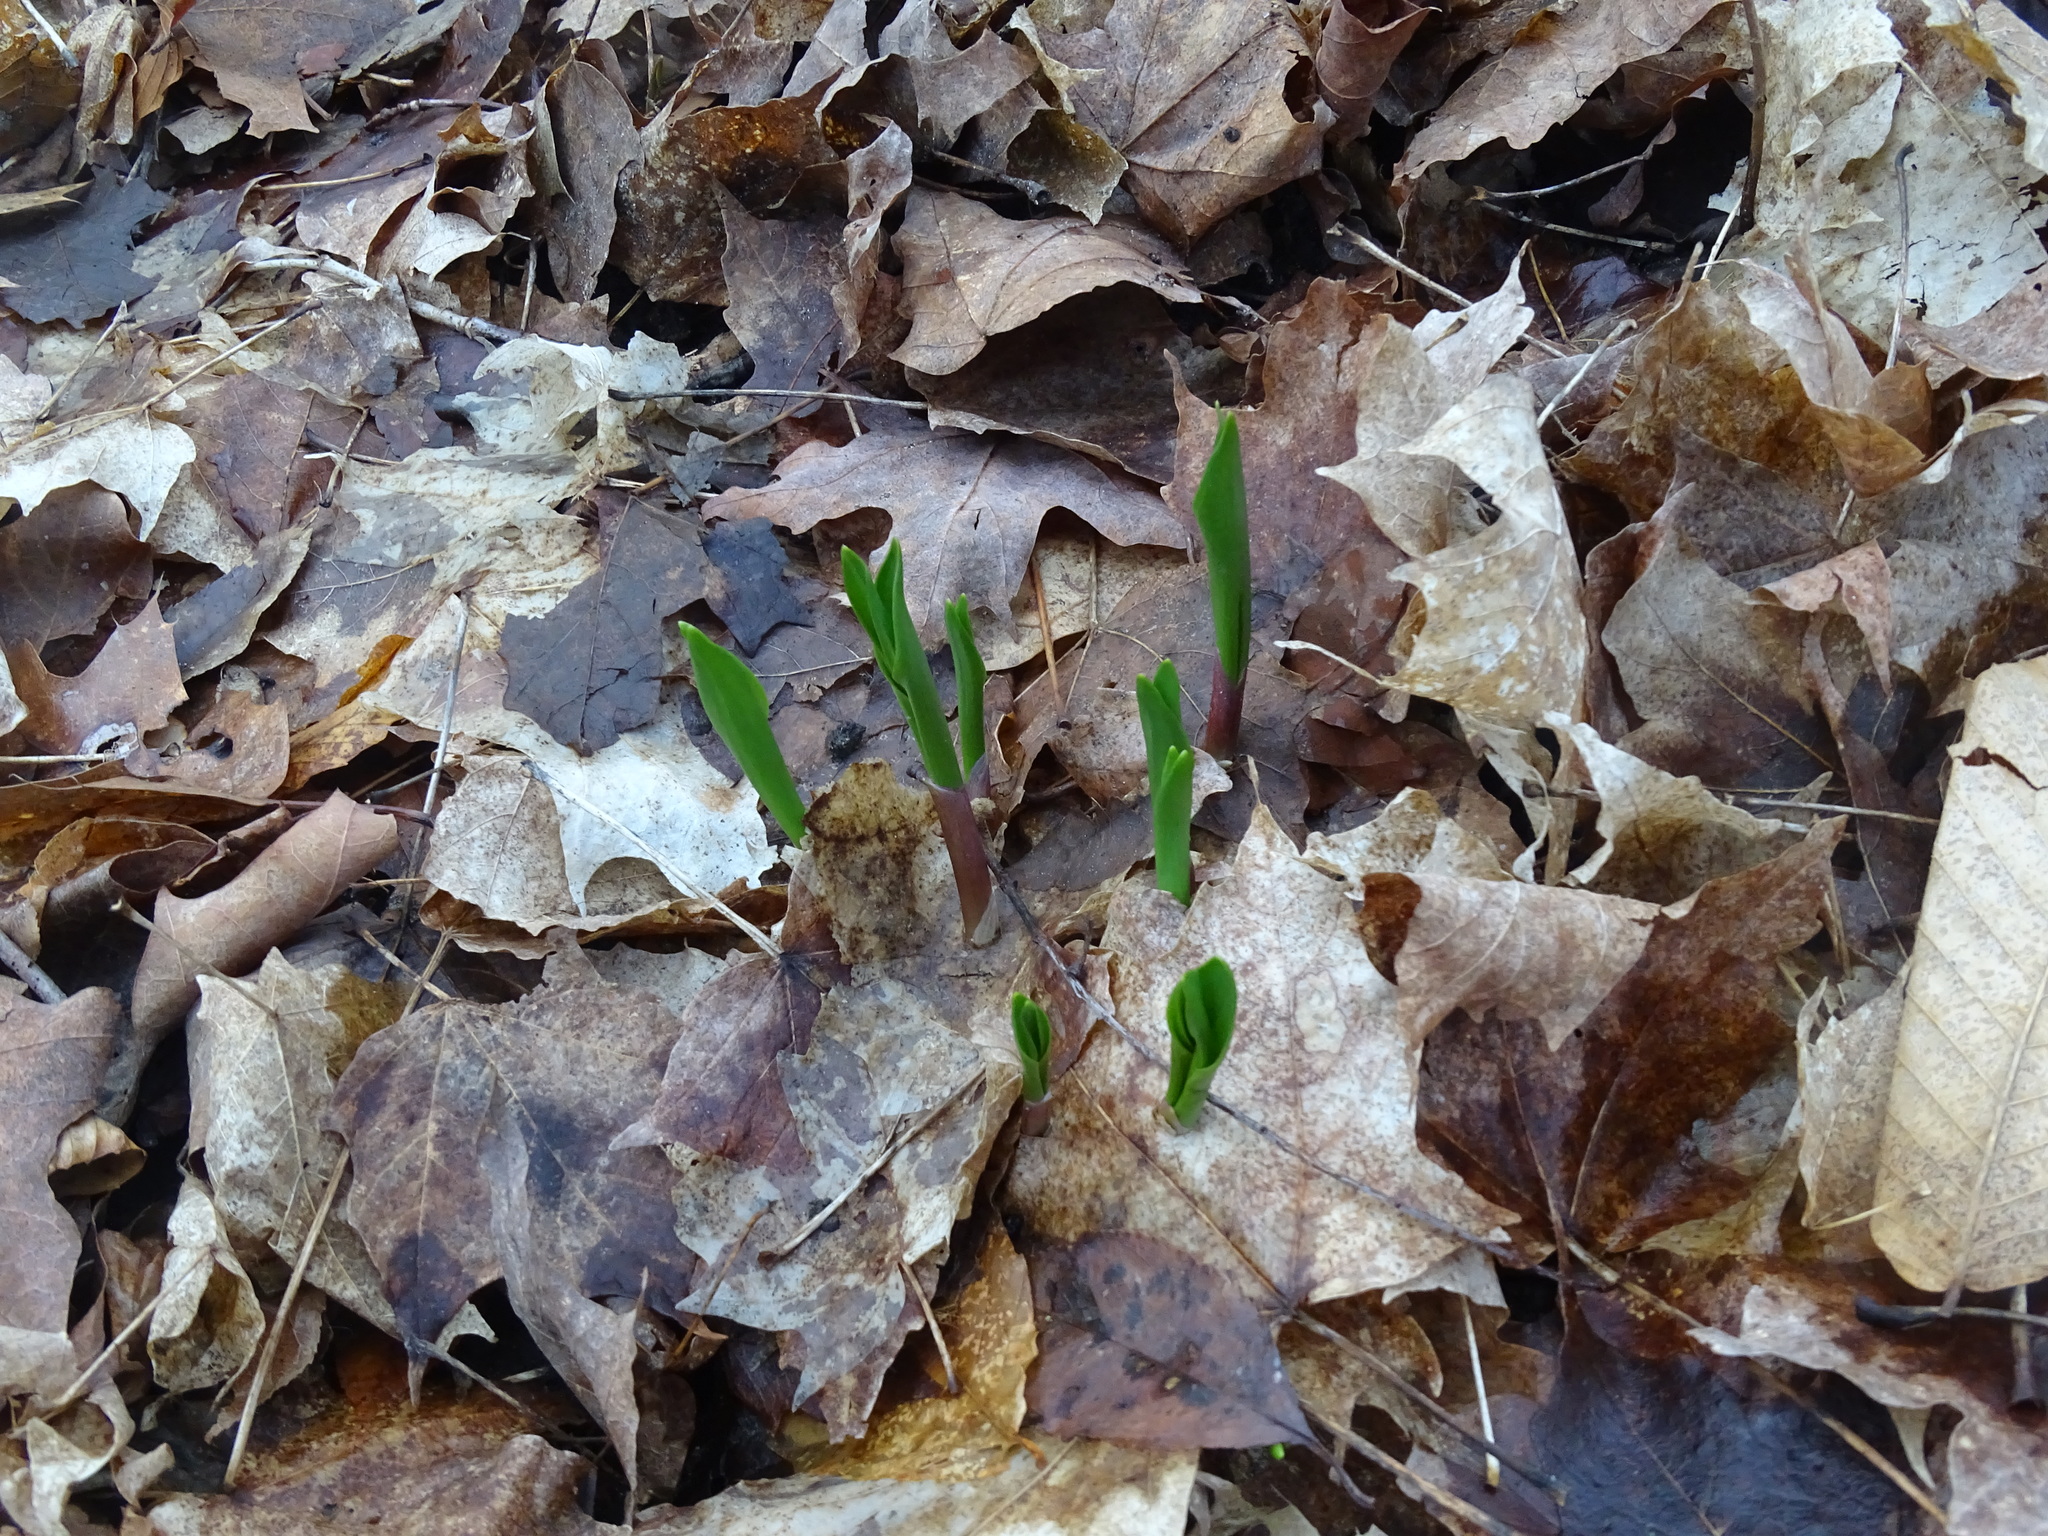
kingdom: Plantae
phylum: Tracheophyta
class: Liliopsida
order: Asparagales
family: Amaryllidaceae
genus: Allium
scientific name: Allium tricoccum
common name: Ramp
